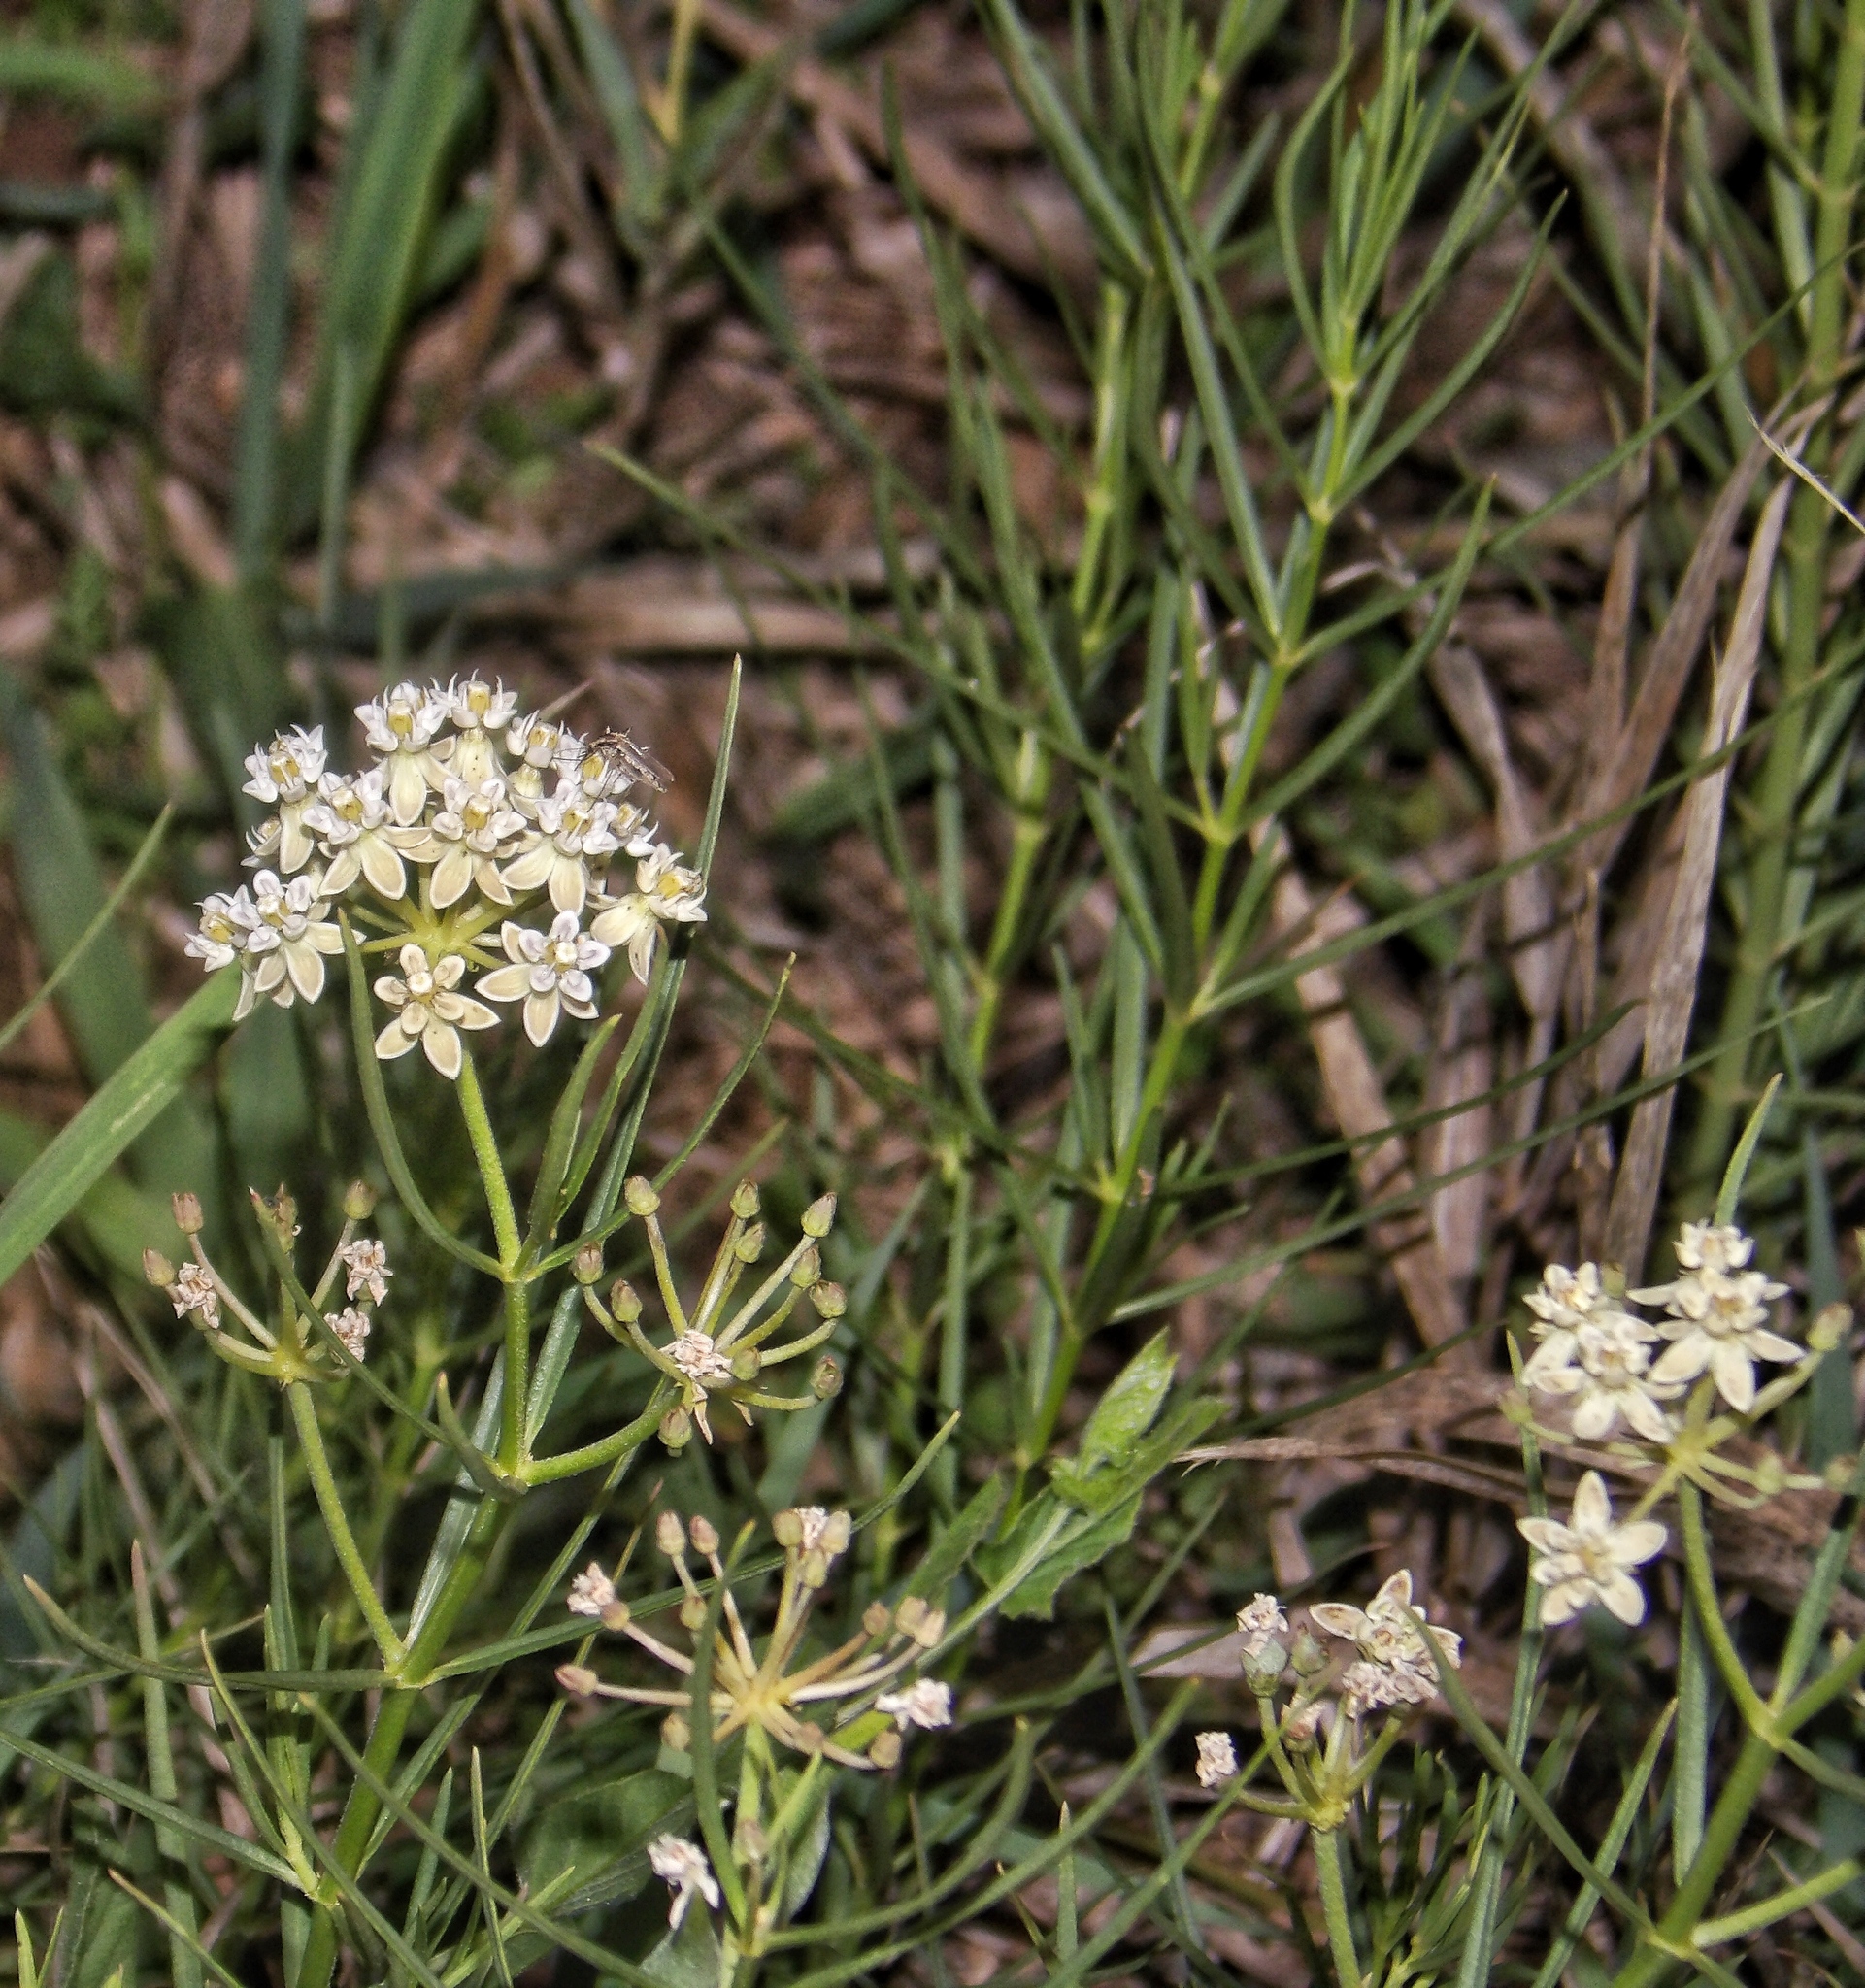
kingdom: Plantae
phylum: Tracheophyta
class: Magnoliopsida
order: Gentianales
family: Apocynaceae
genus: Asclepias
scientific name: Asclepias subverticillata
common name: Horsetail milkweed
